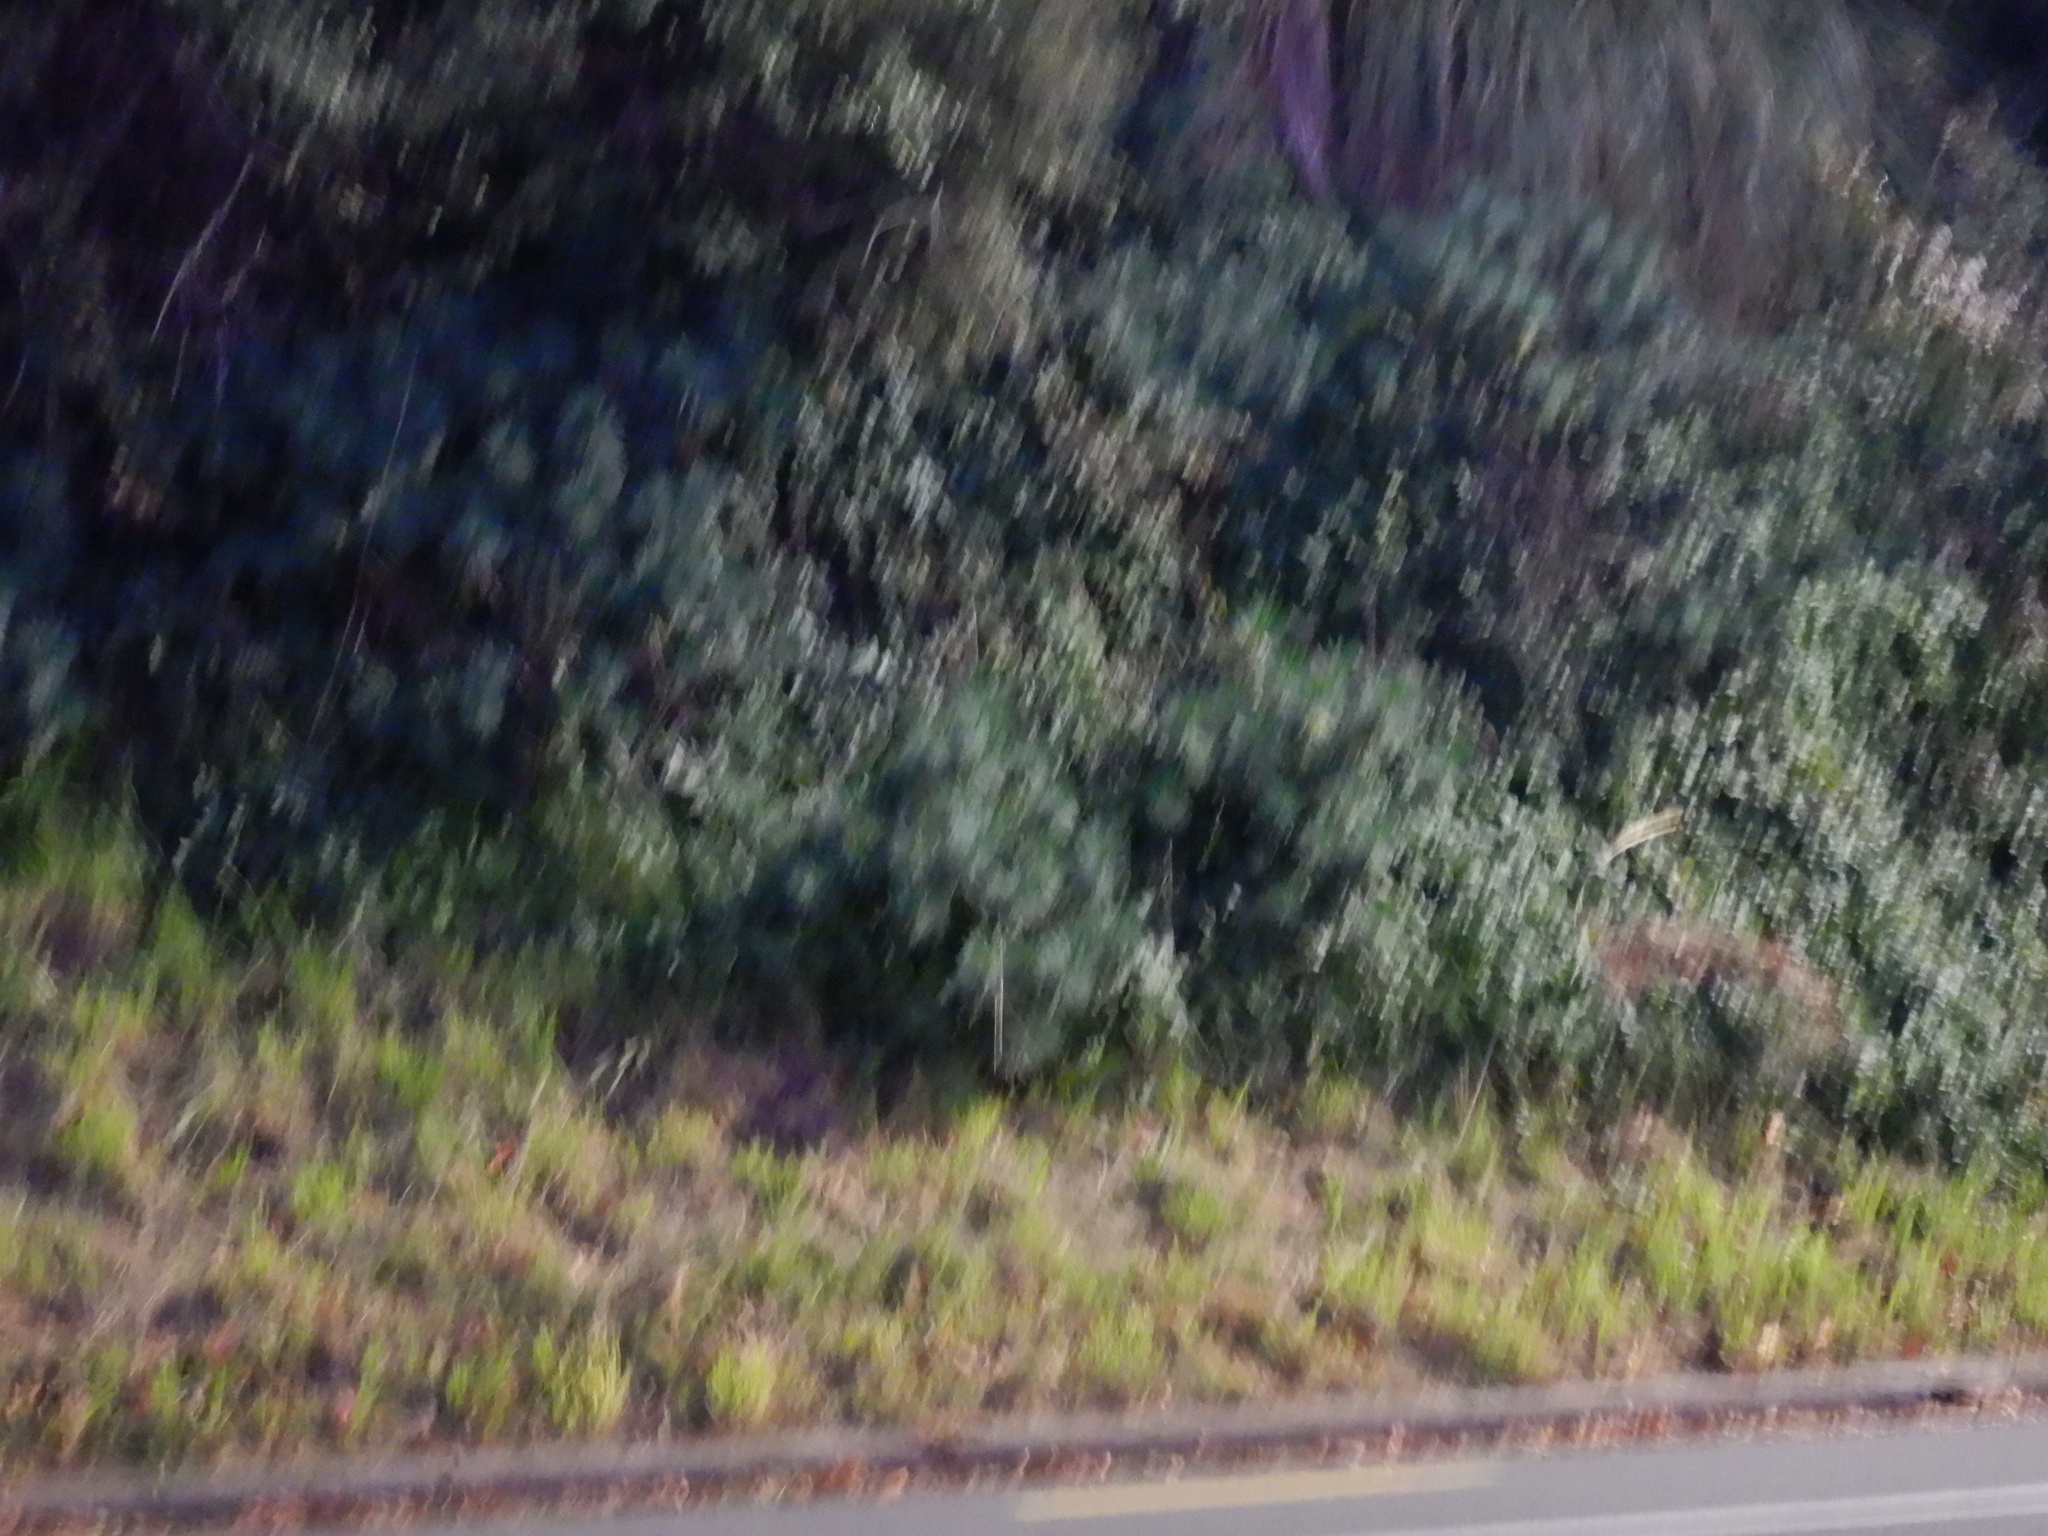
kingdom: Plantae
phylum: Tracheophyta
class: Magnoliopsida
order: Malpighiales
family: Euphorbiaceae
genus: Euphorbia
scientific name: Euphorbia characias
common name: Mediterranean spurge
